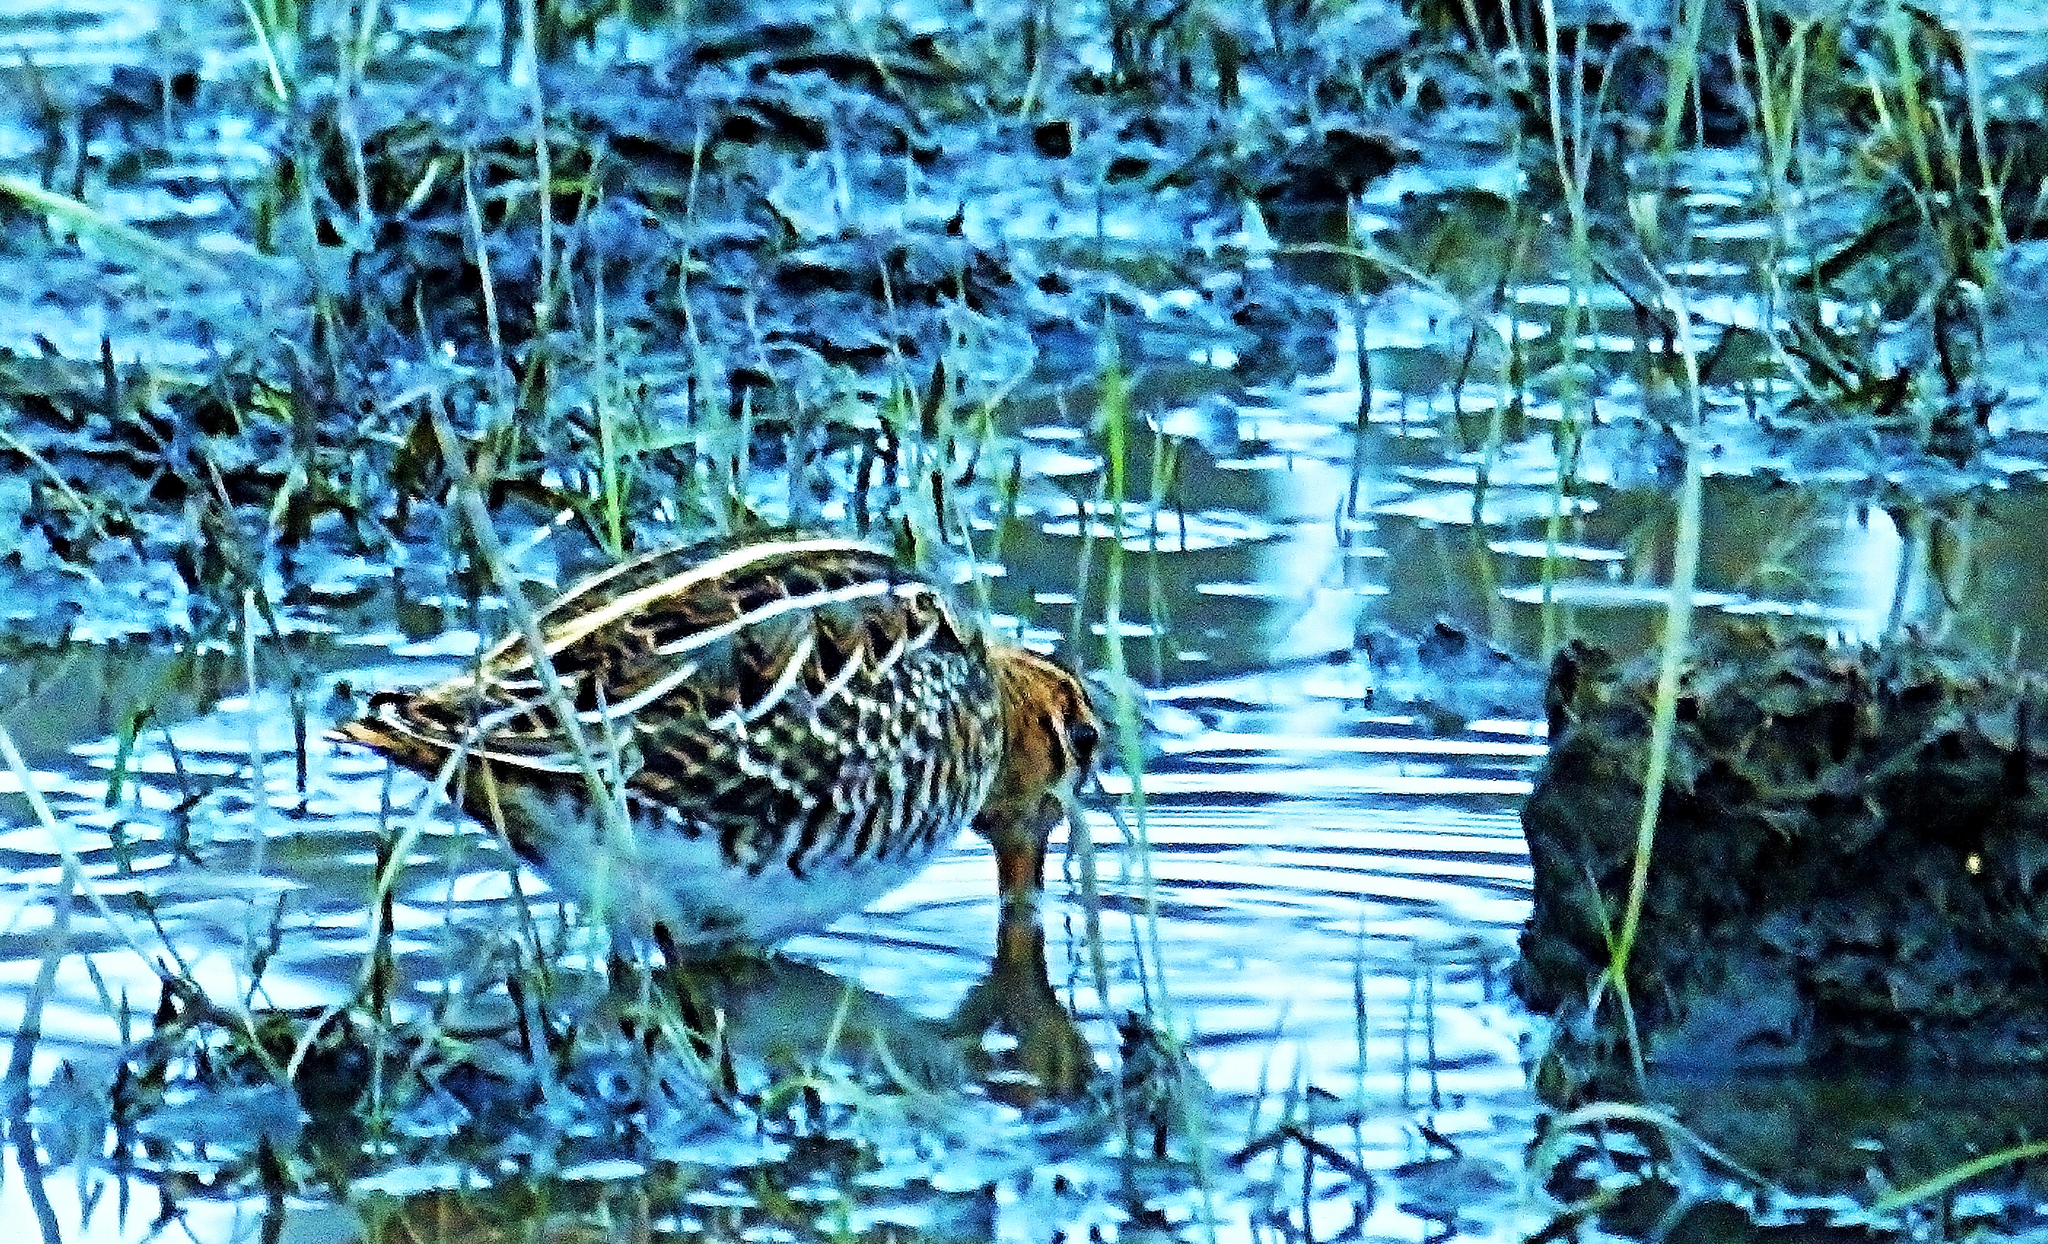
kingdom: Animalia
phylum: Chordata
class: Aves
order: Charadriiformes
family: Scolopacidae
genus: Gallinago
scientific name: Gallinago gallinago
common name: Common snipe
